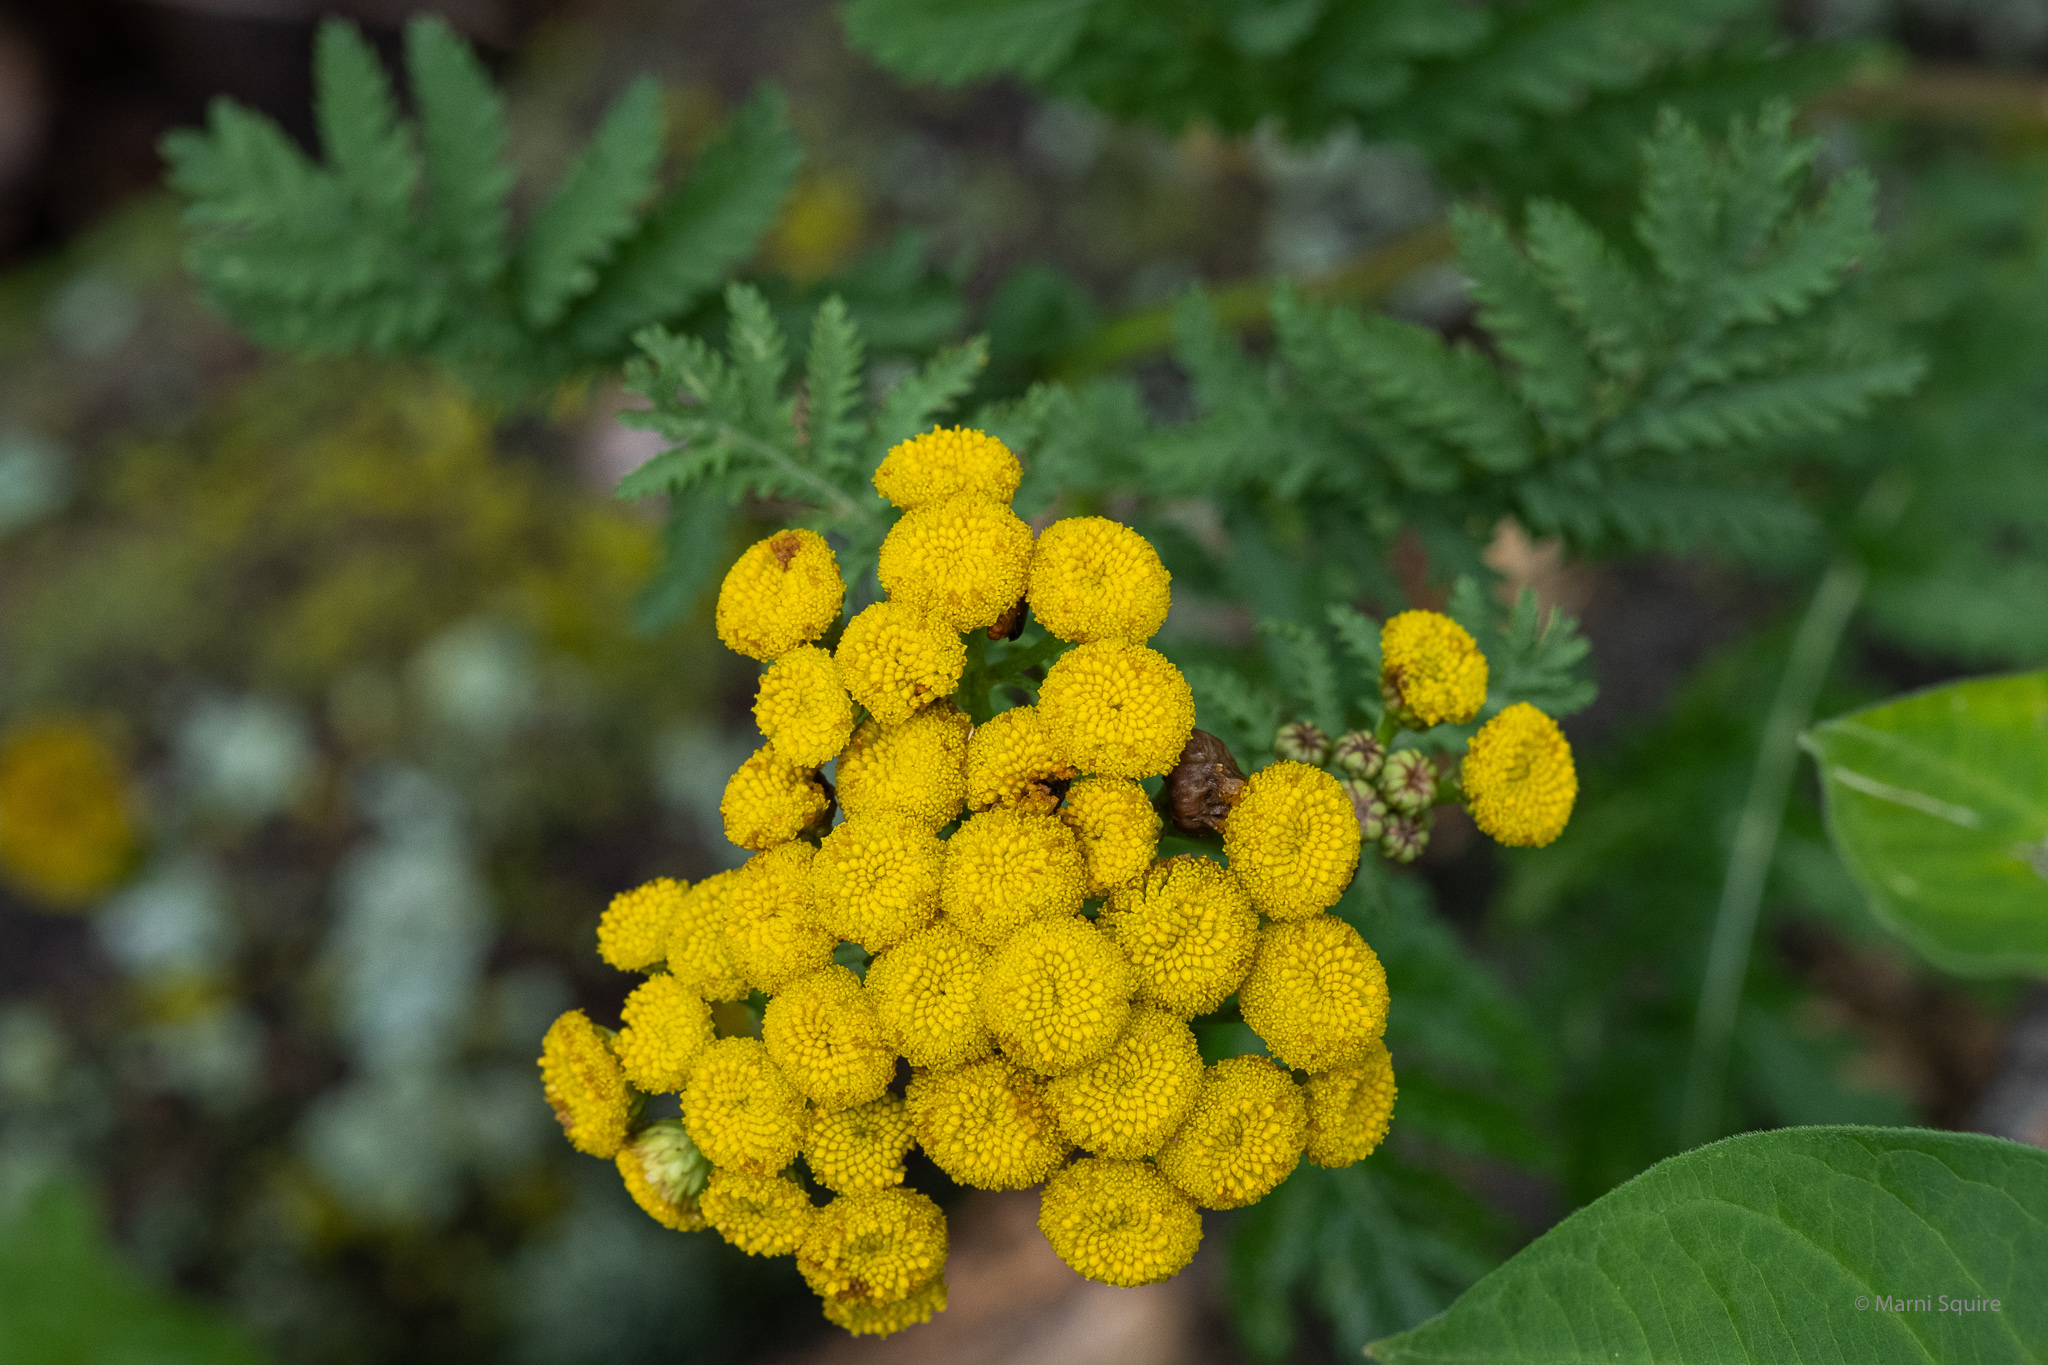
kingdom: Plantae
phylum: Tracheophyta
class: Magnoliopsida
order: Asterales
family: Asteraceae
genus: Tanacetum
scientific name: Tanacetum vulgare
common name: Common tansy
